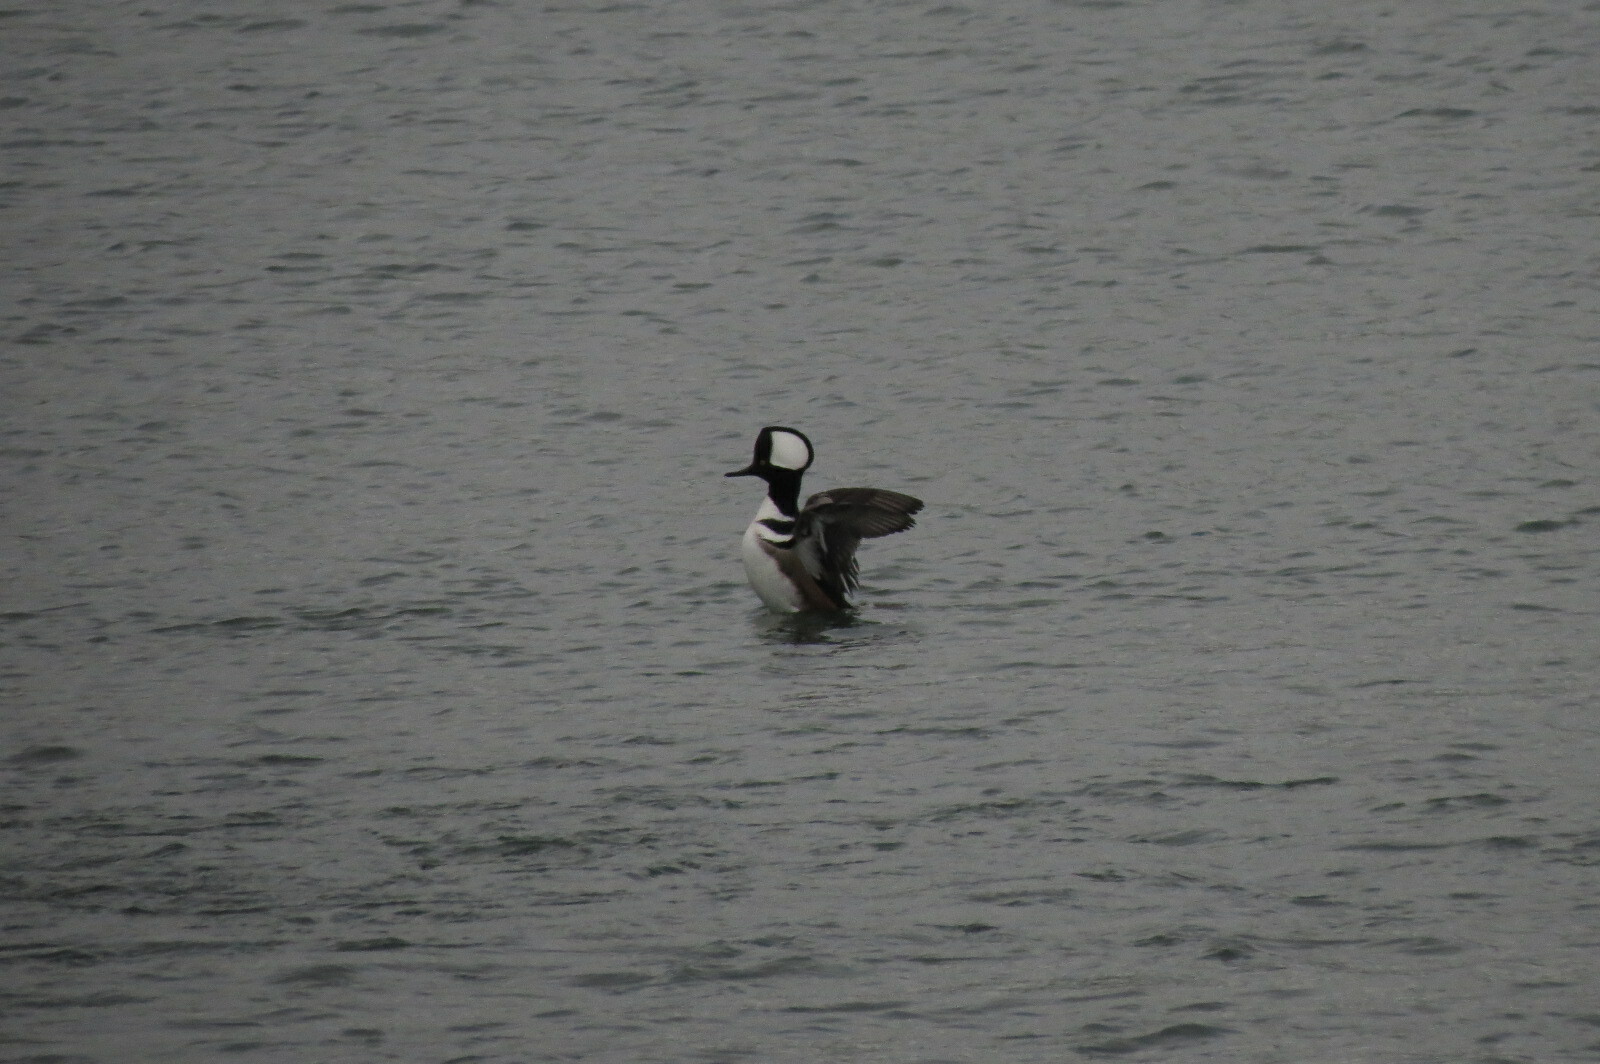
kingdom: Animalia
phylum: Chordata
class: Aves
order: Anseriformes
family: Anatidae
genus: Lophodytes
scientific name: Lophodytes cucullatus
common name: Hooded merganser
